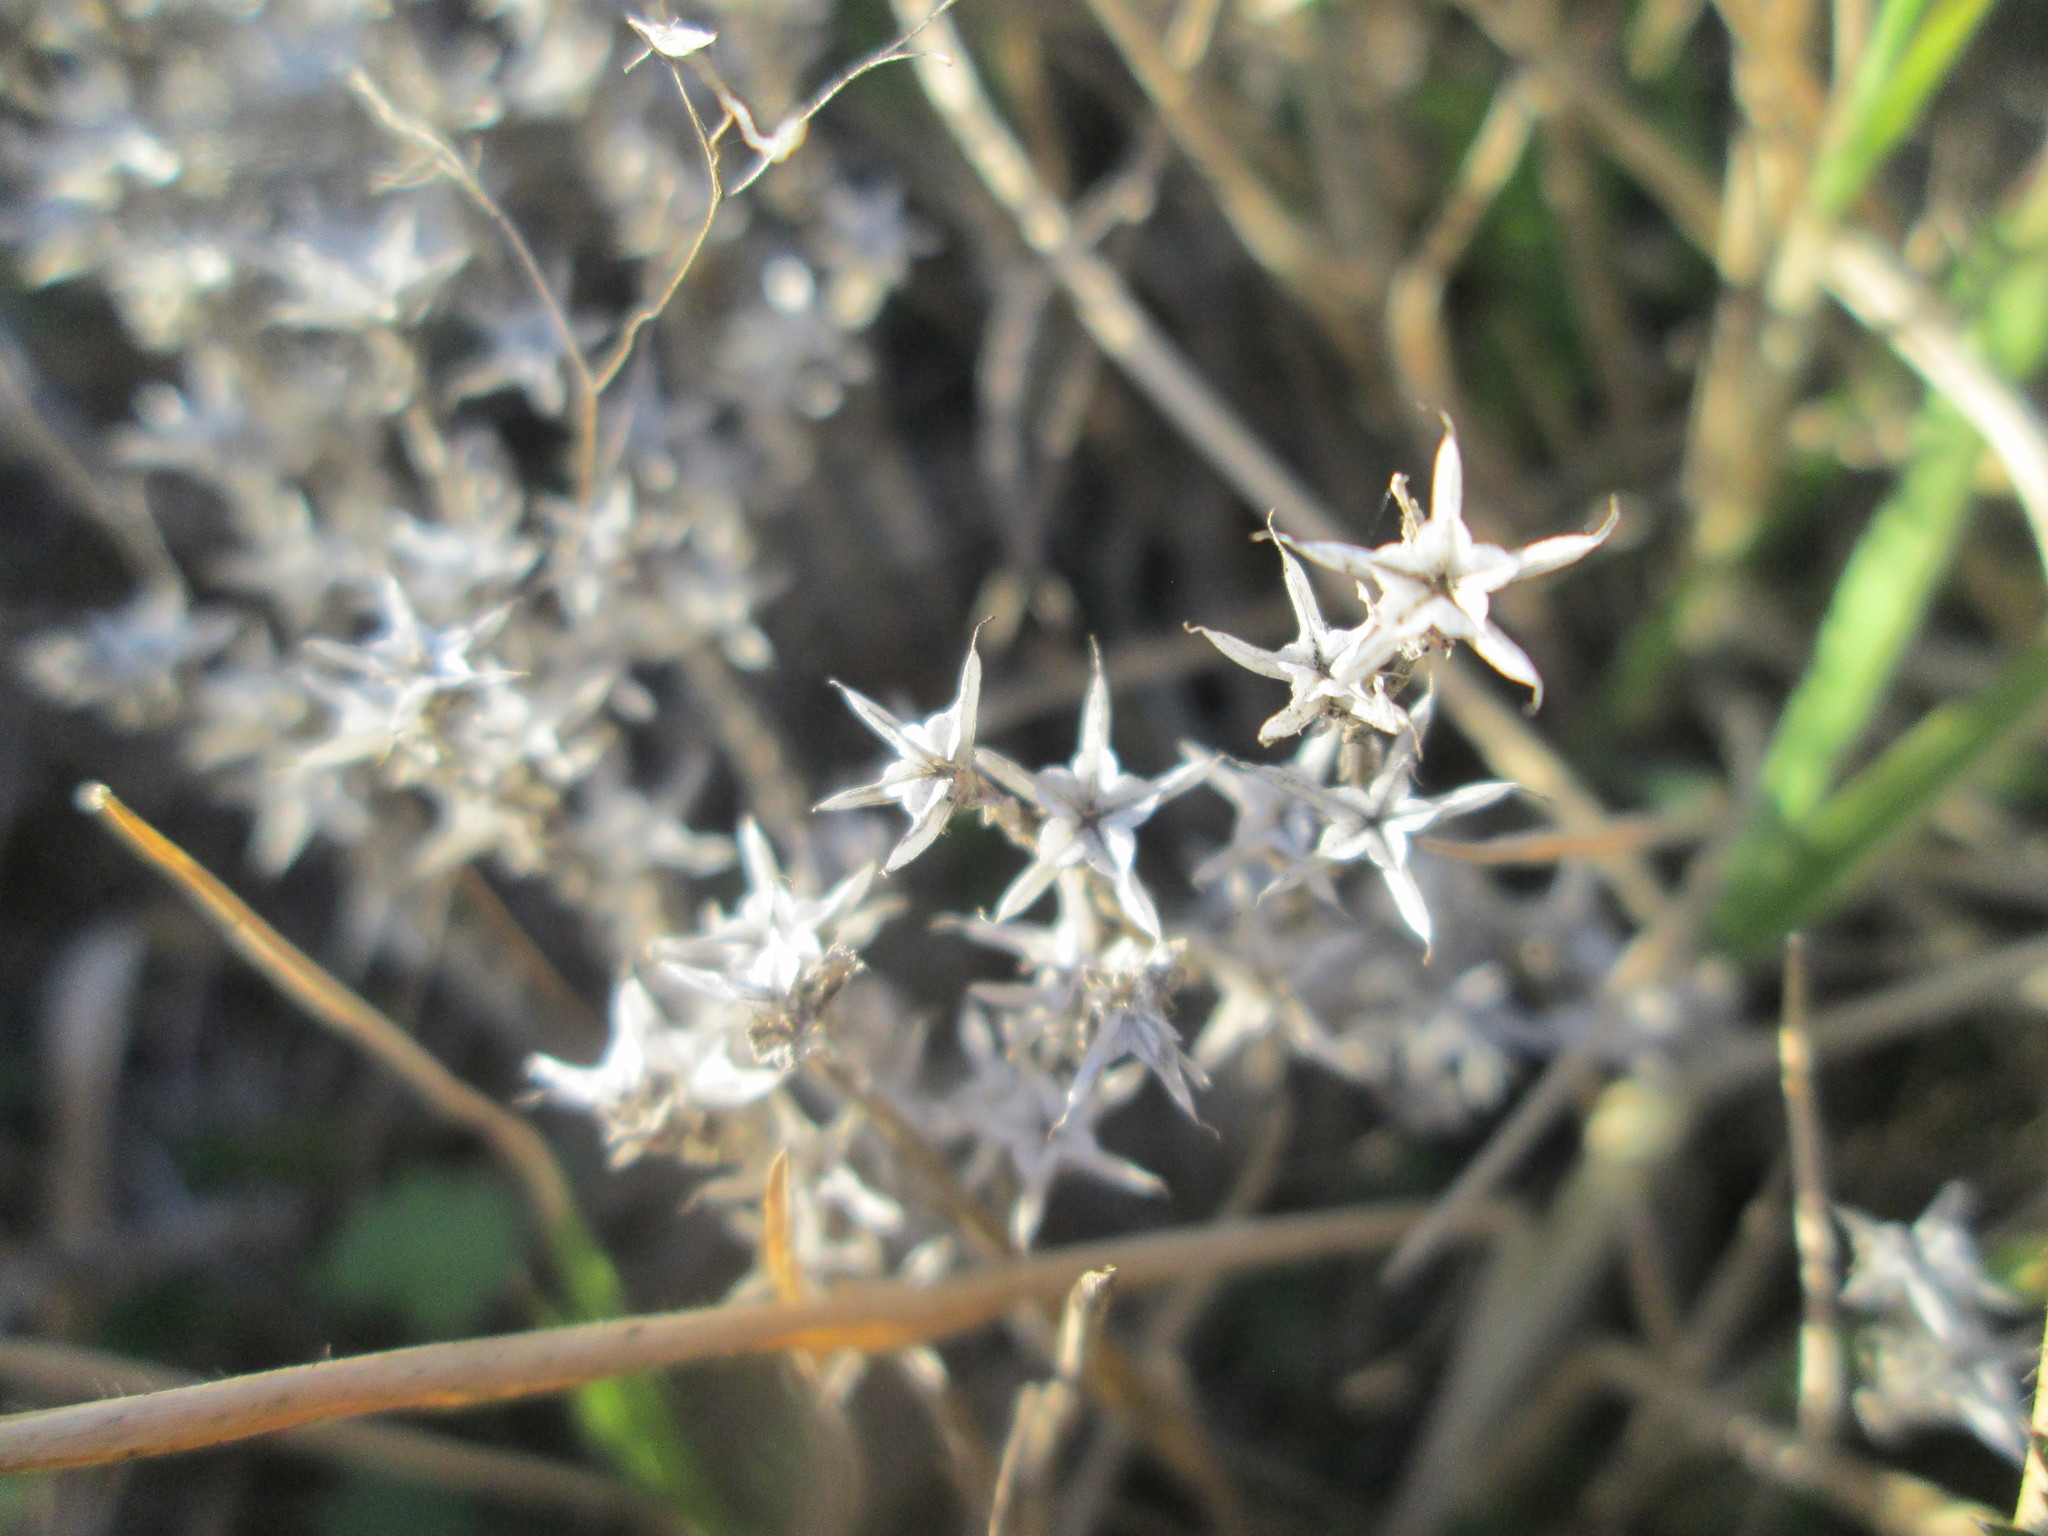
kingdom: Plantae
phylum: Tracheophyta
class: Magnoliopsida
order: Saxifragales
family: Crassulaceae
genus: Sedum
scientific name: Sedum acre
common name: Biting stonecrop
